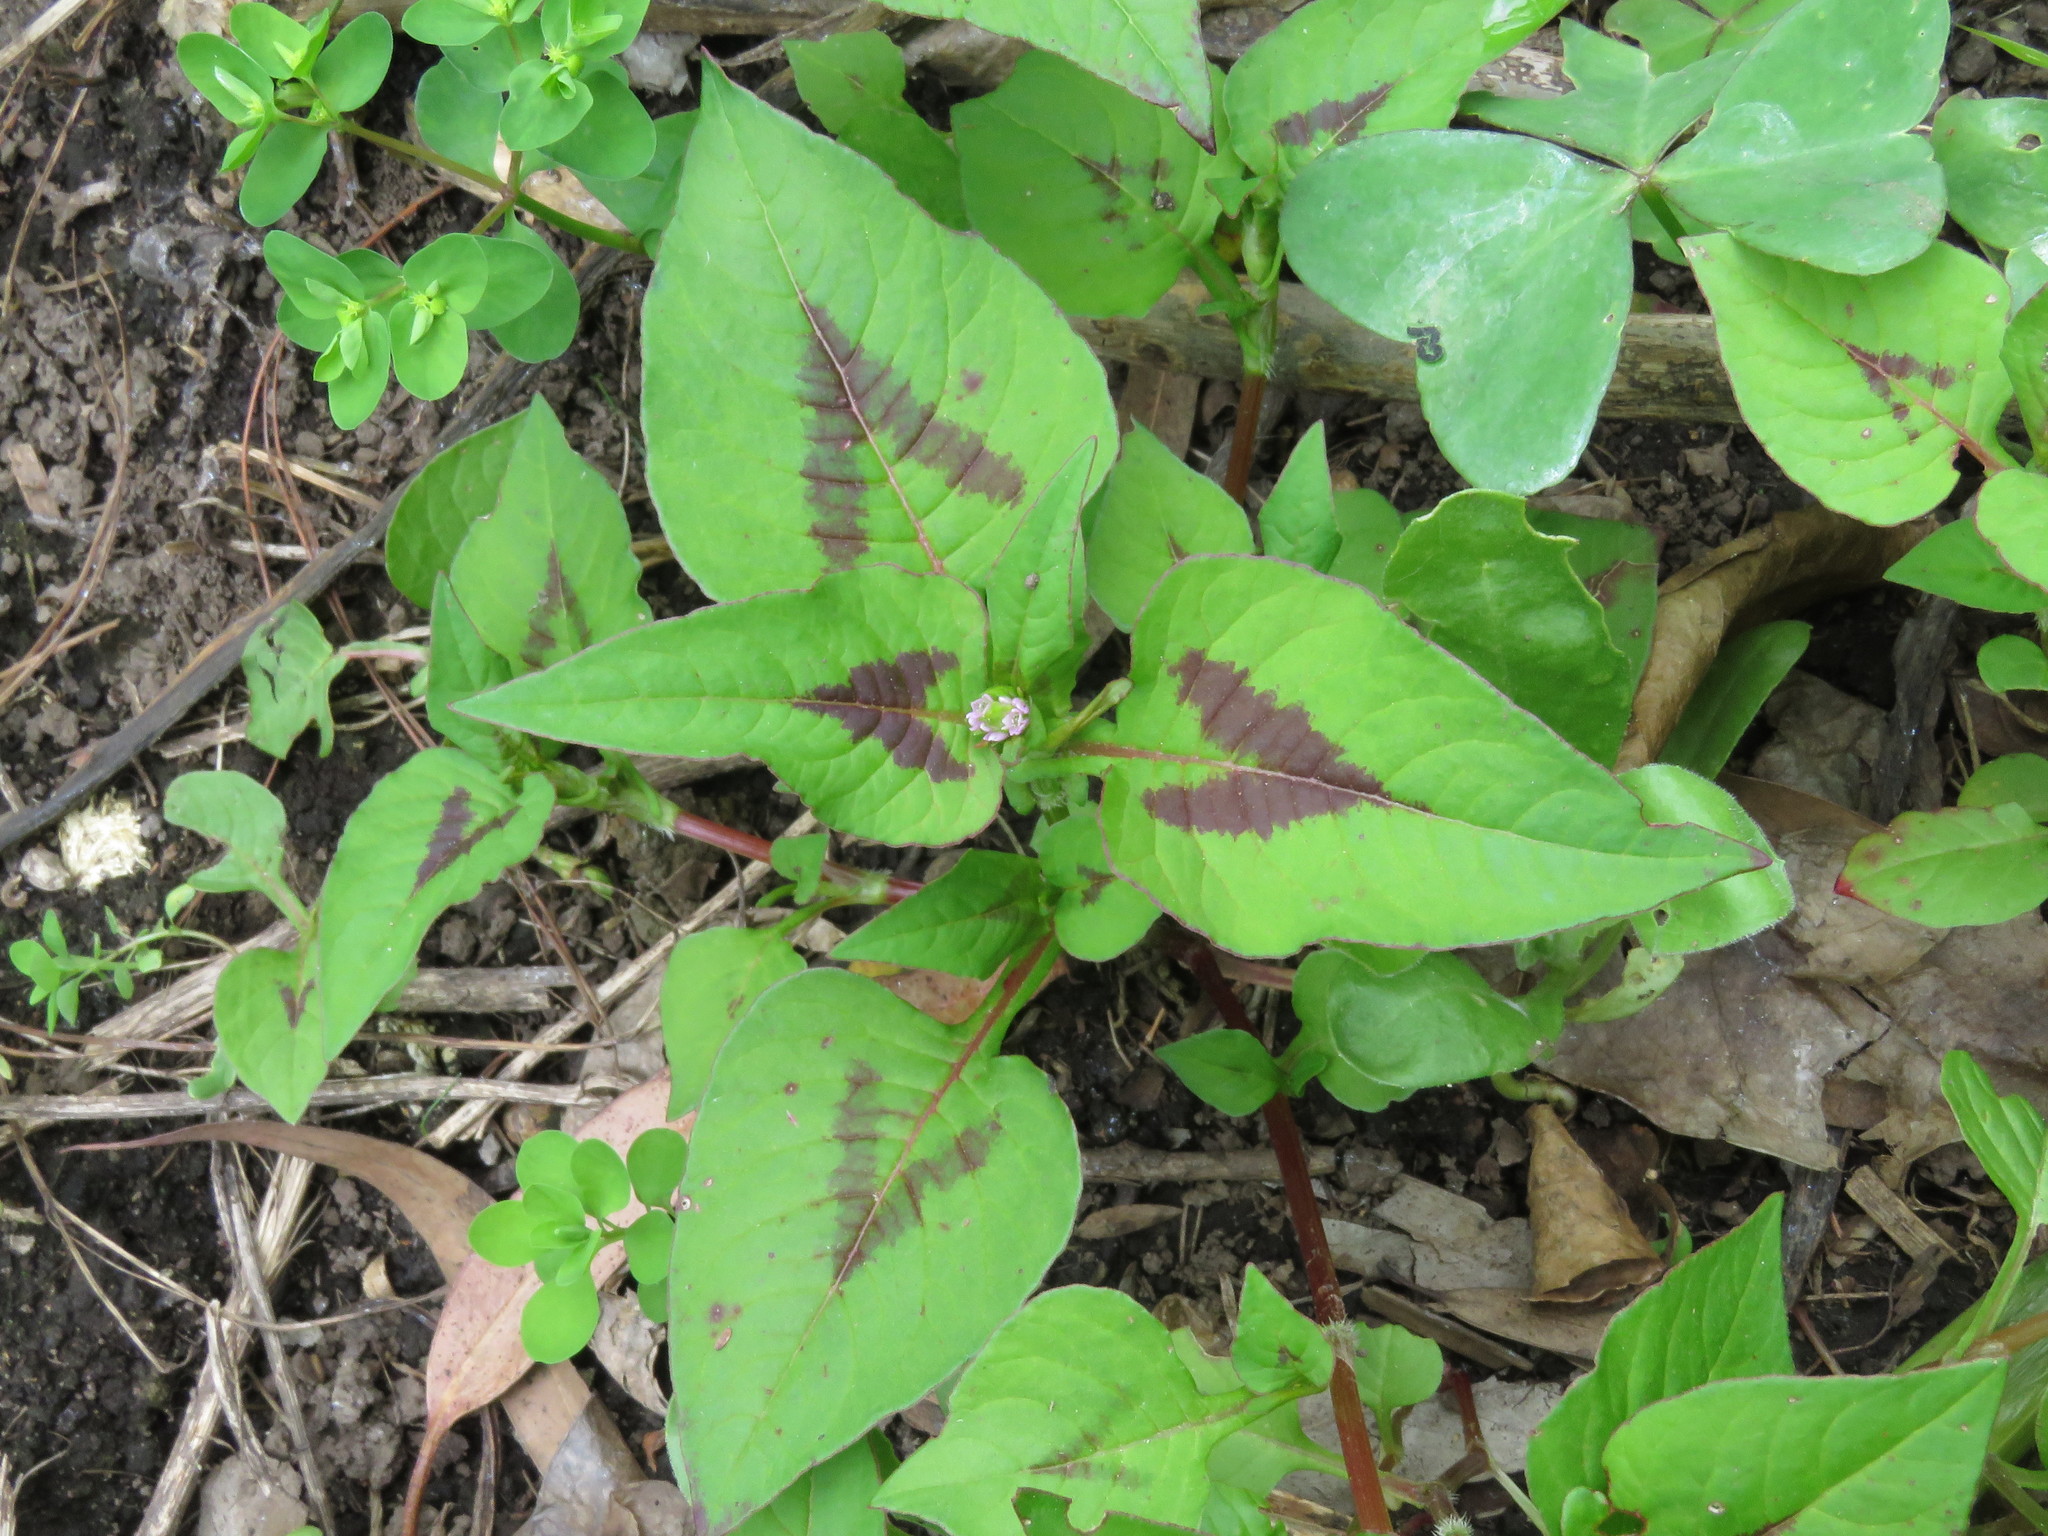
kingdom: Plantae
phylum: Tracheophyta
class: Magnoliopsida
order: Caryophyllales
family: Polygonaceae
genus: Persicaria
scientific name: Persicaria nepalensis
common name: Nepal persicaria
